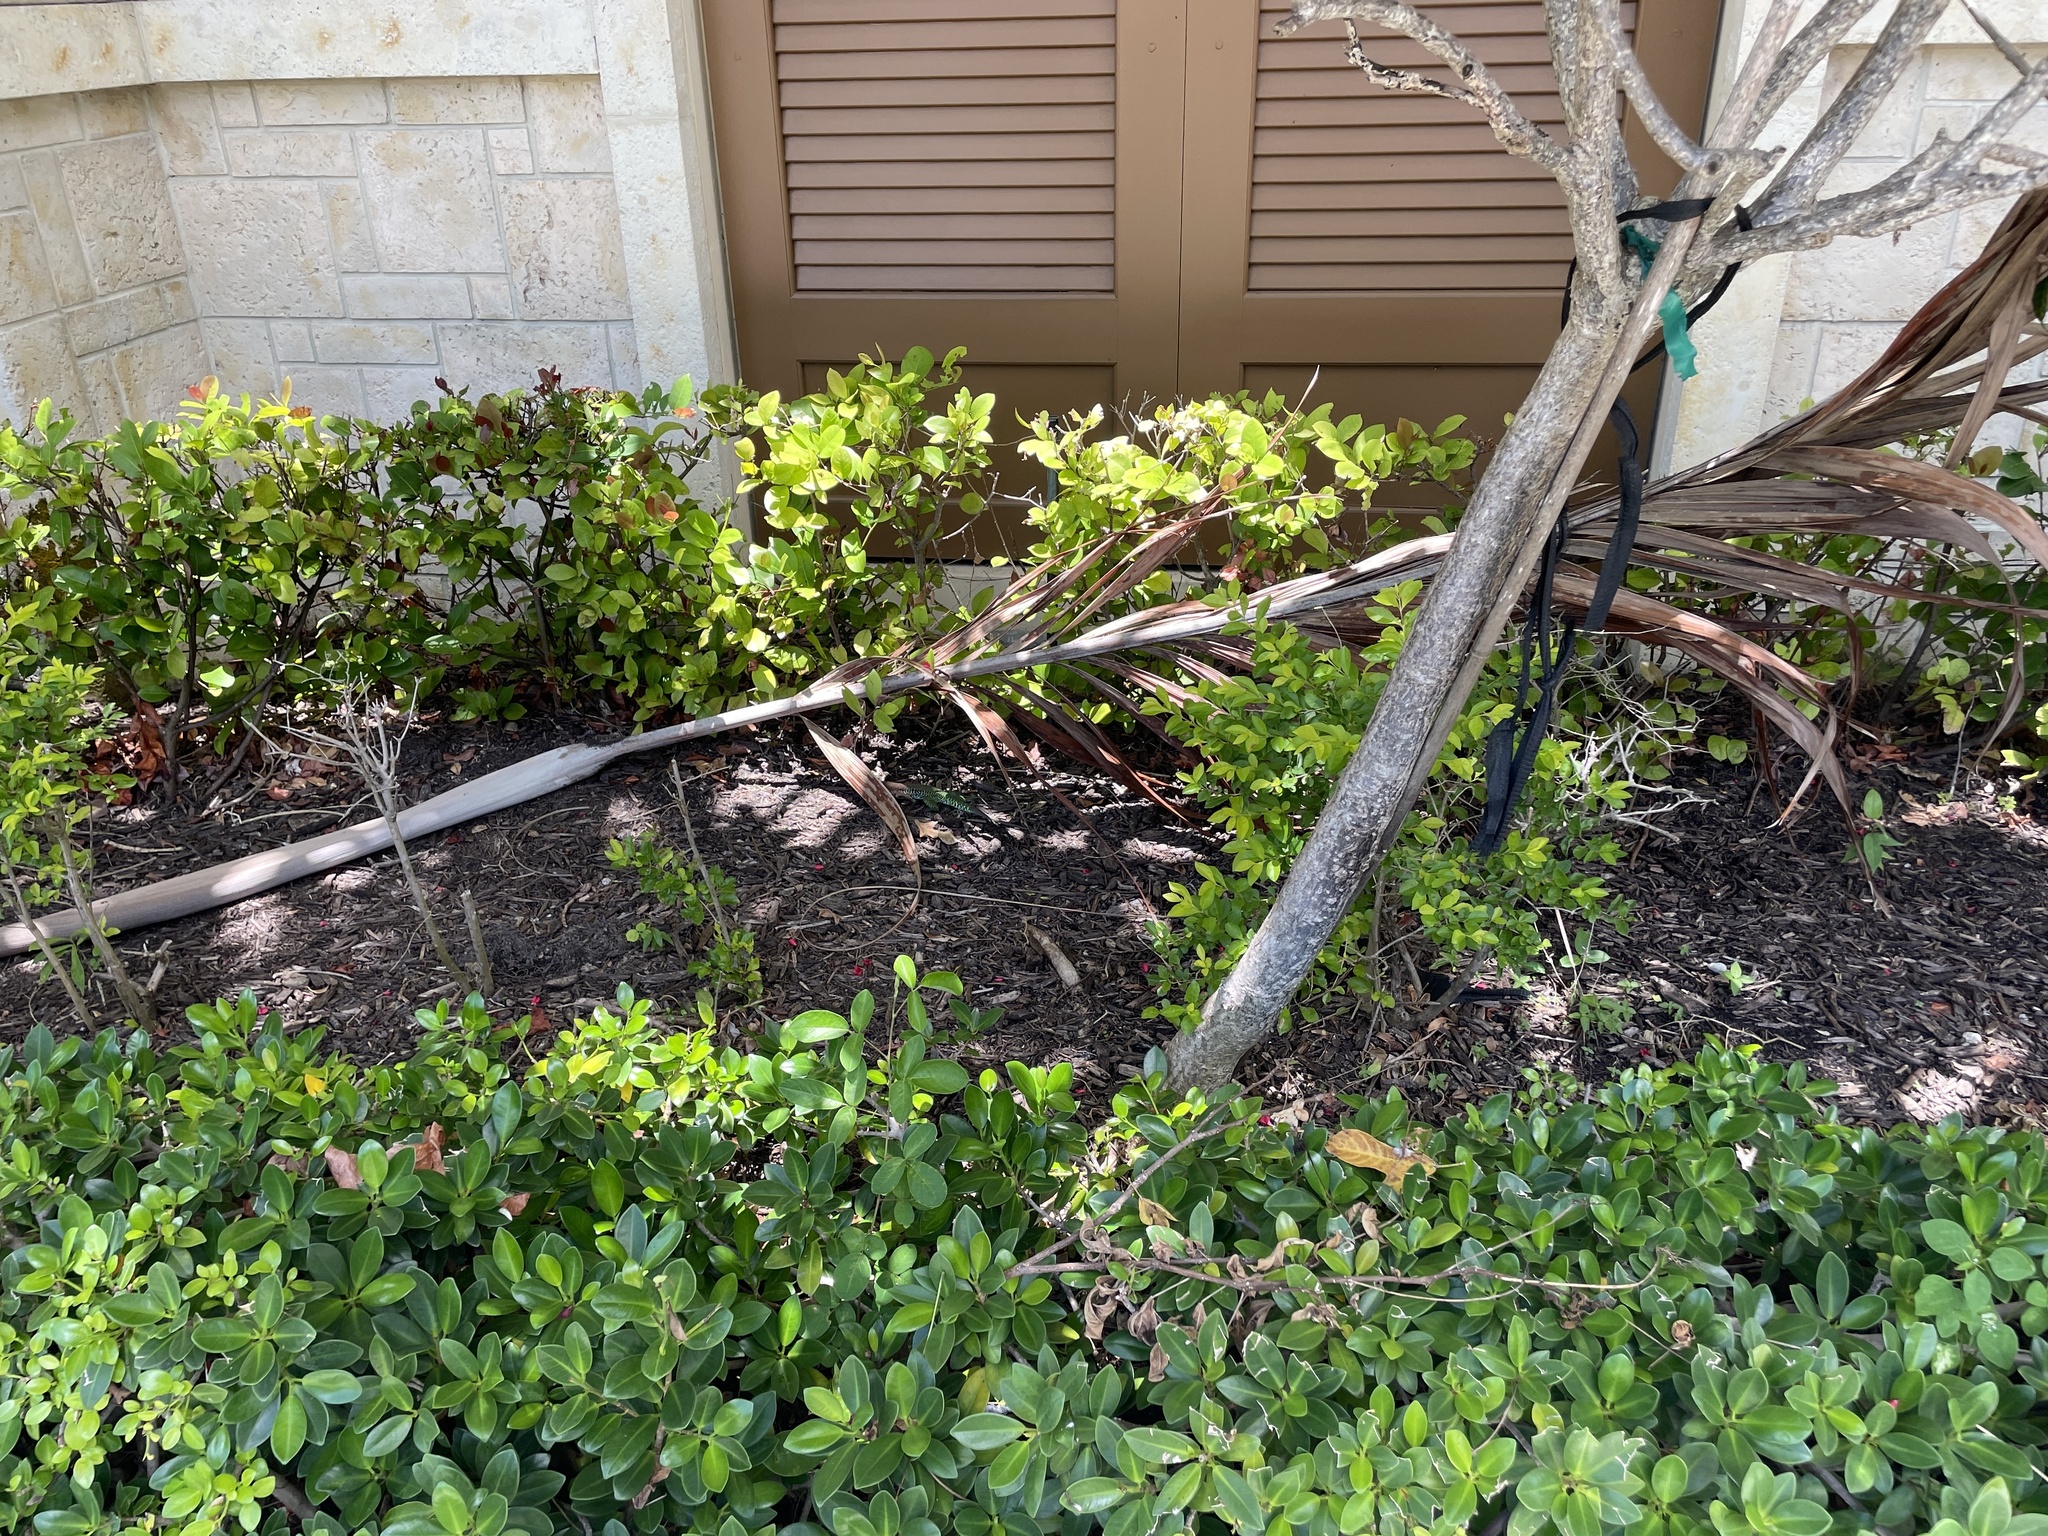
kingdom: Animalia
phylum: Chordata
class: Squamata
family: Teiidae
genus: Ameiva
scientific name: Ameiva ameiva
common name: Giant ameiva
